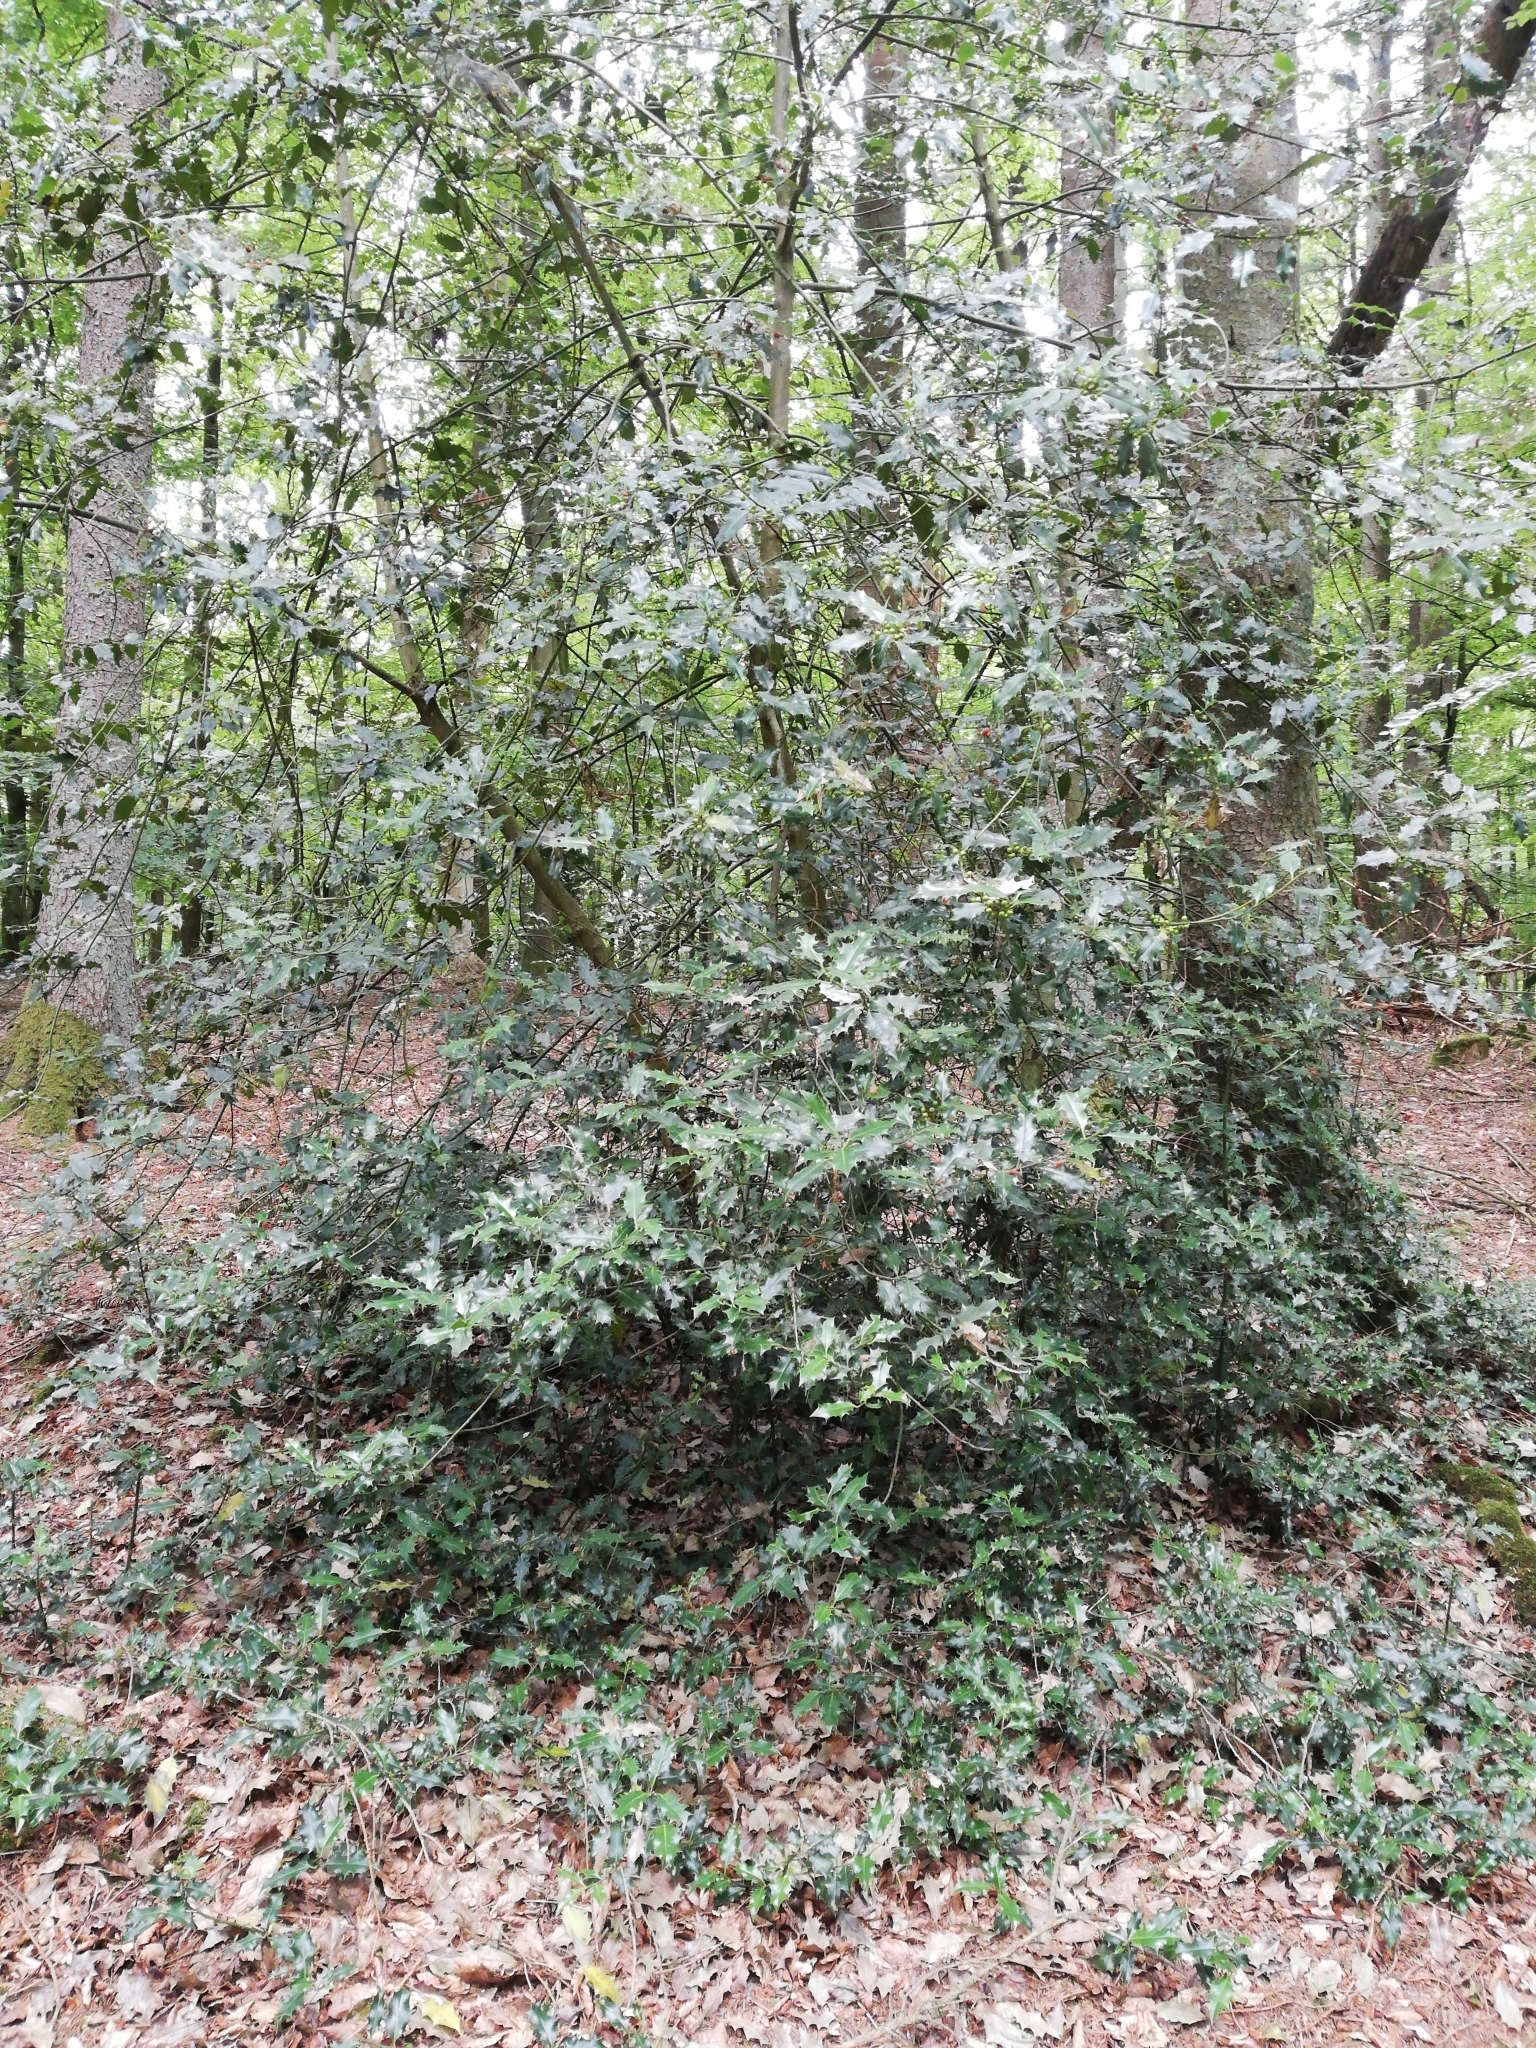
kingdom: Plantae
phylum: Tracheophyta
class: Magnoliopsida
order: Aquifoliales
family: Aquifoliaceae
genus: Ilex
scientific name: Ilex aquifolium
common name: English holly
